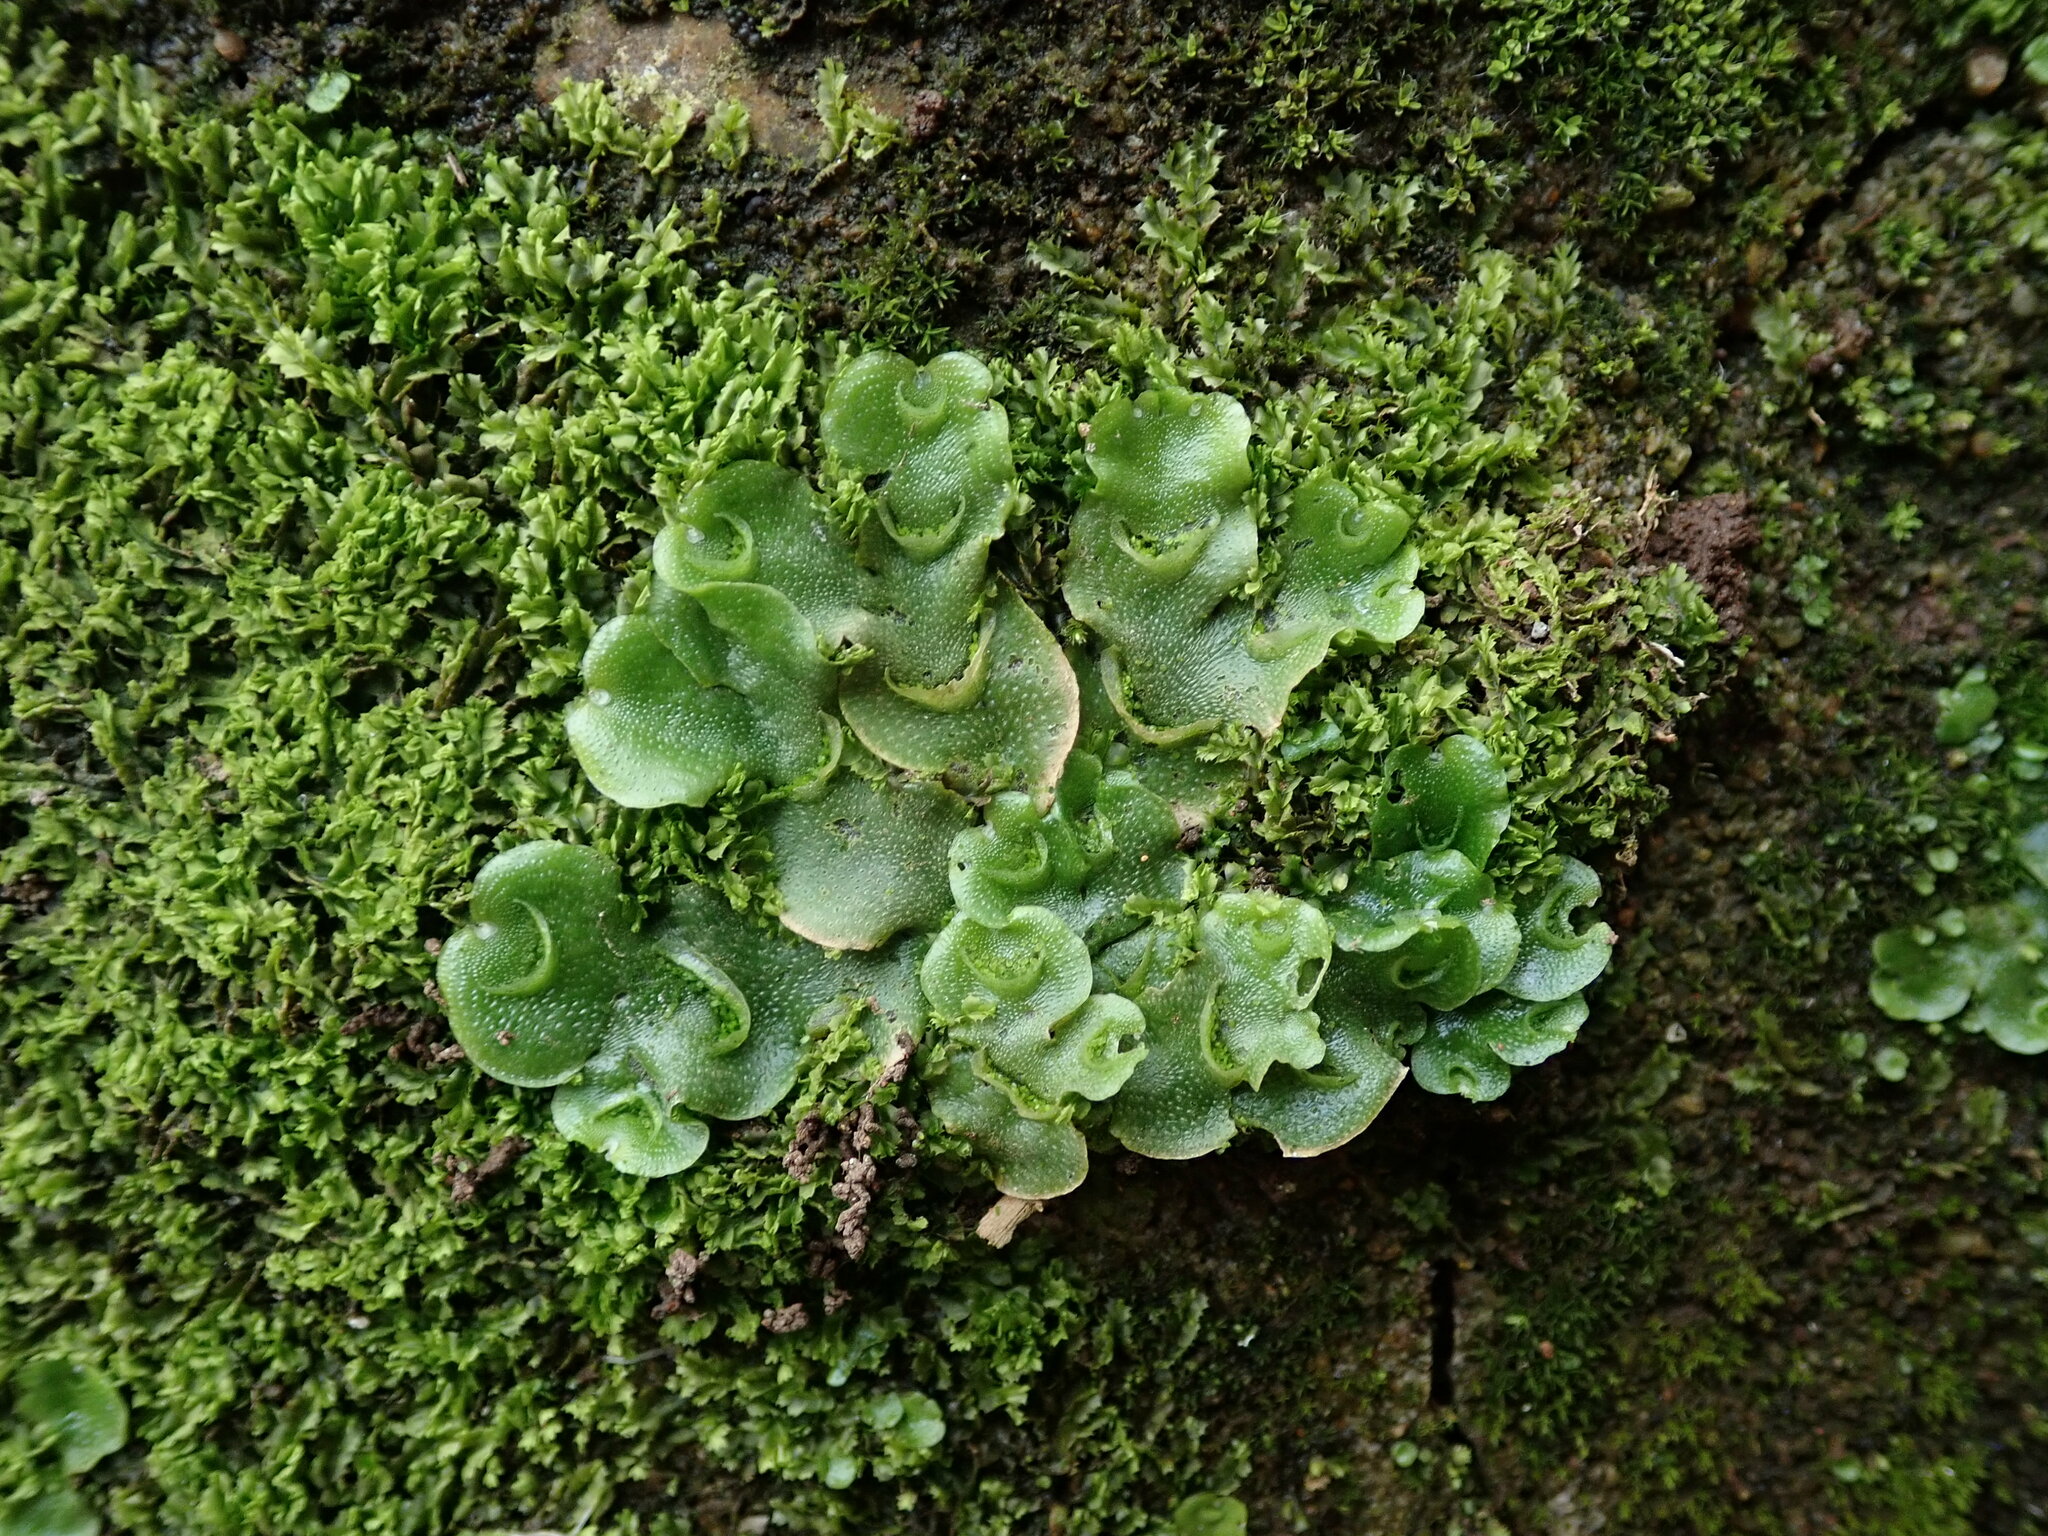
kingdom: Plantae
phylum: Marchantiophyta
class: Marchantiopsida
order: Lunulariales
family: Lunulariaceae
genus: Lunularia
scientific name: Lunularia cruciata
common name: Crescent-cup liverwort
